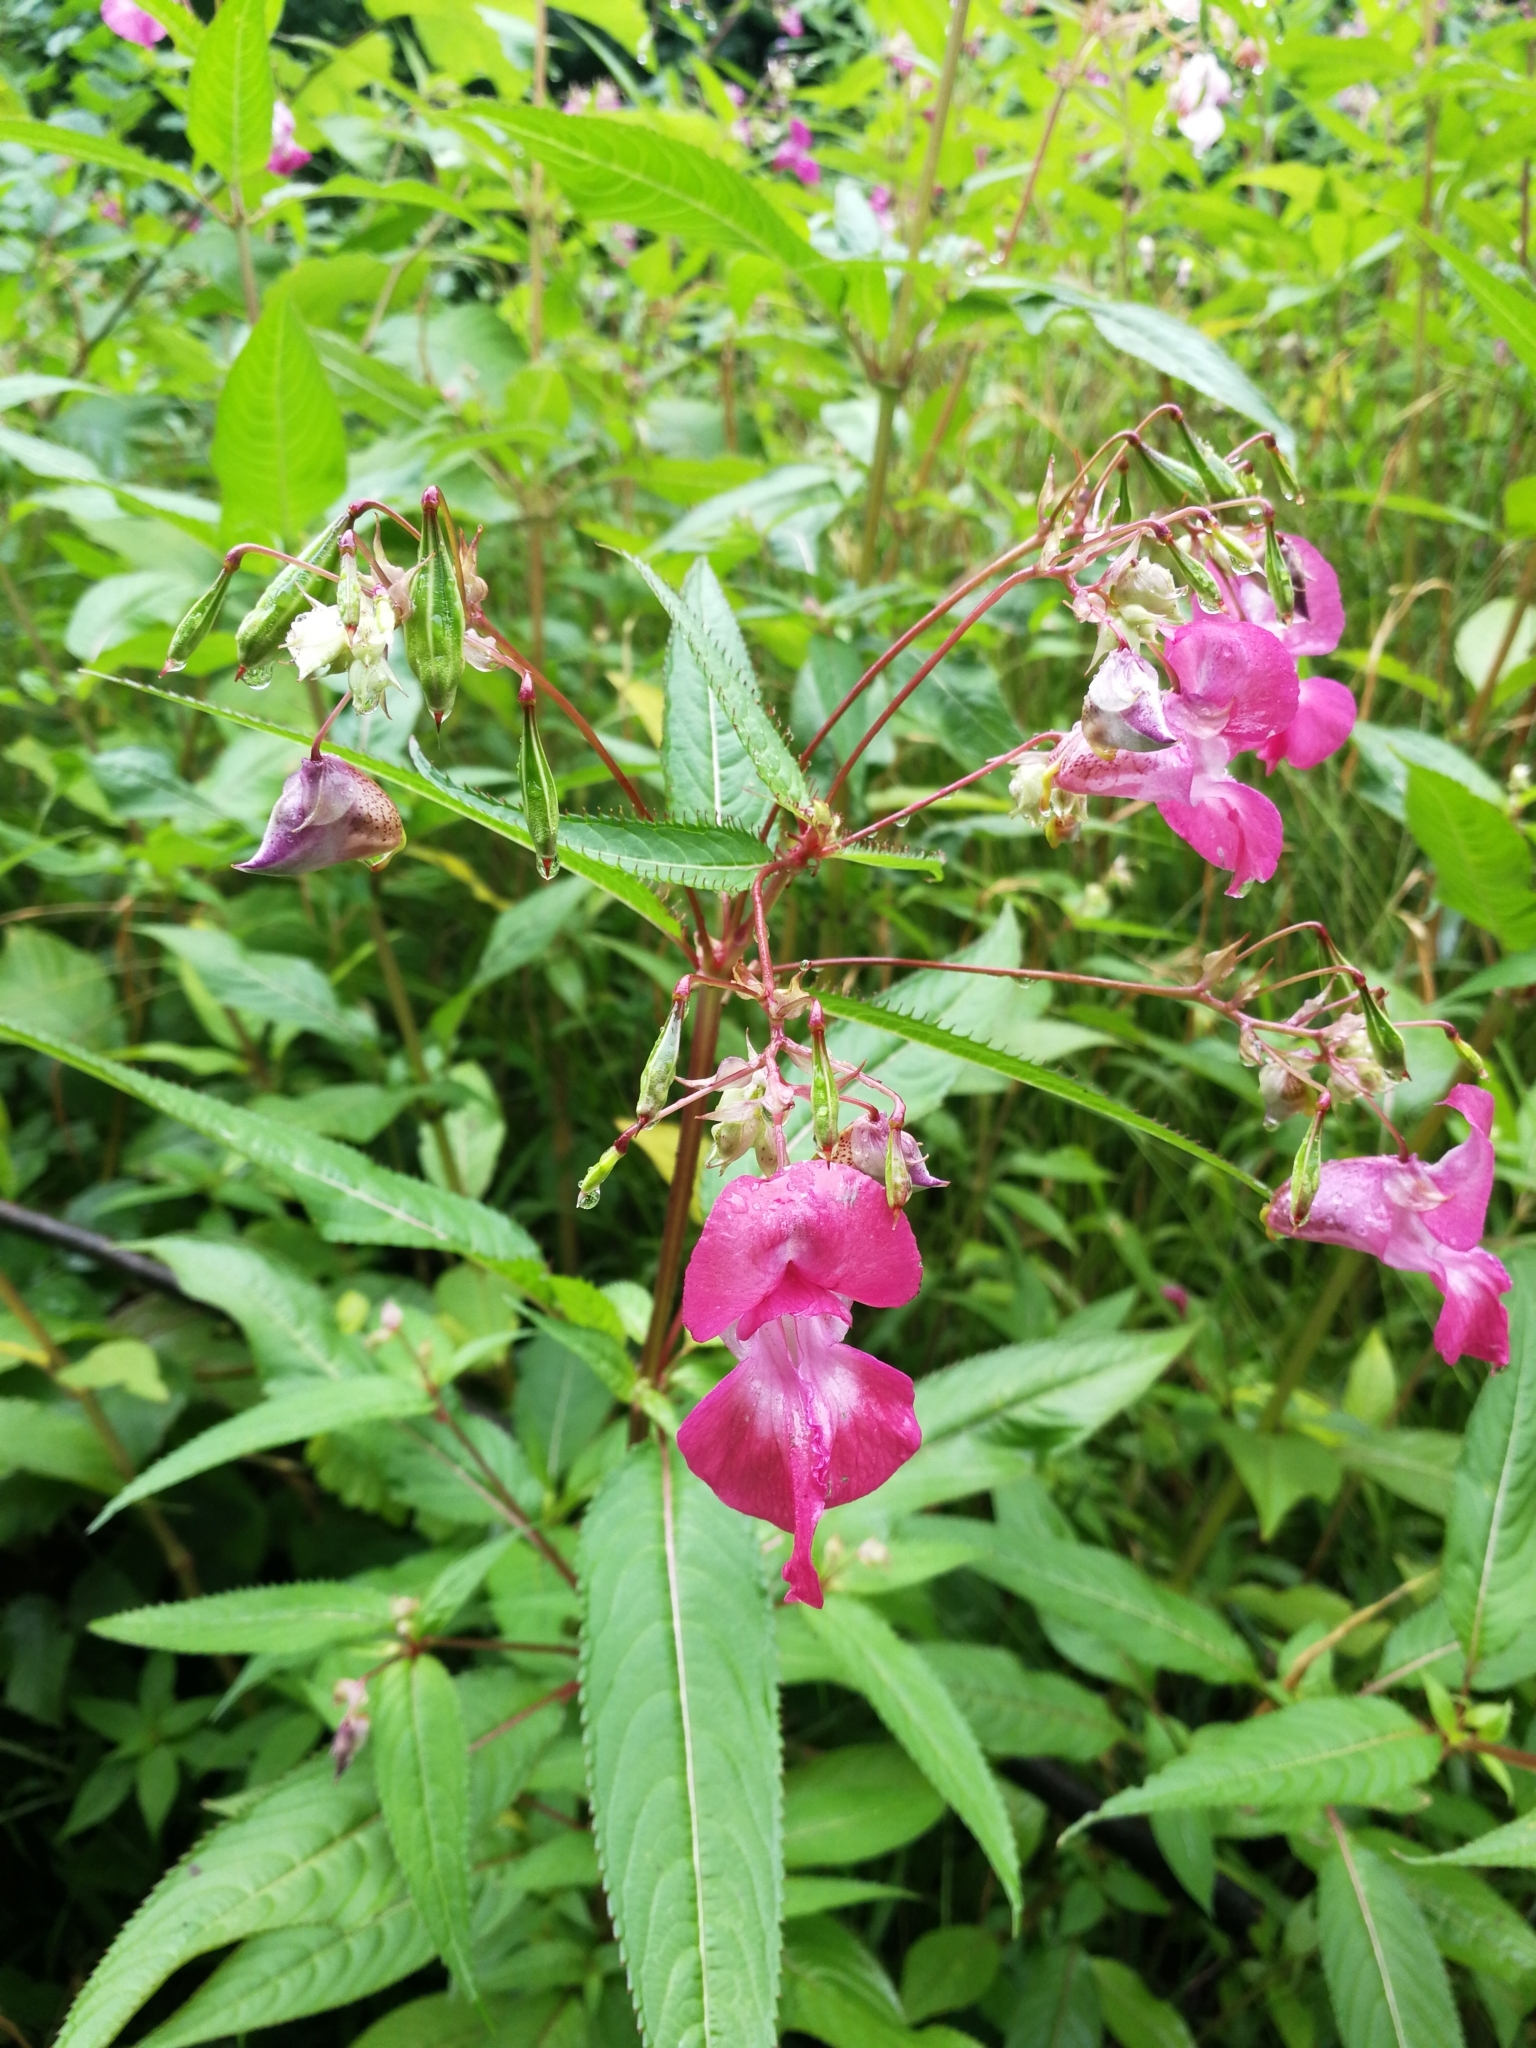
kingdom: Plantae
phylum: Tracheophyta
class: Magnoliopsida
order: Ericales
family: Balsaminaceae
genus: Impatiens
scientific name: Impatiens glandulifera
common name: Himalayan balsam
